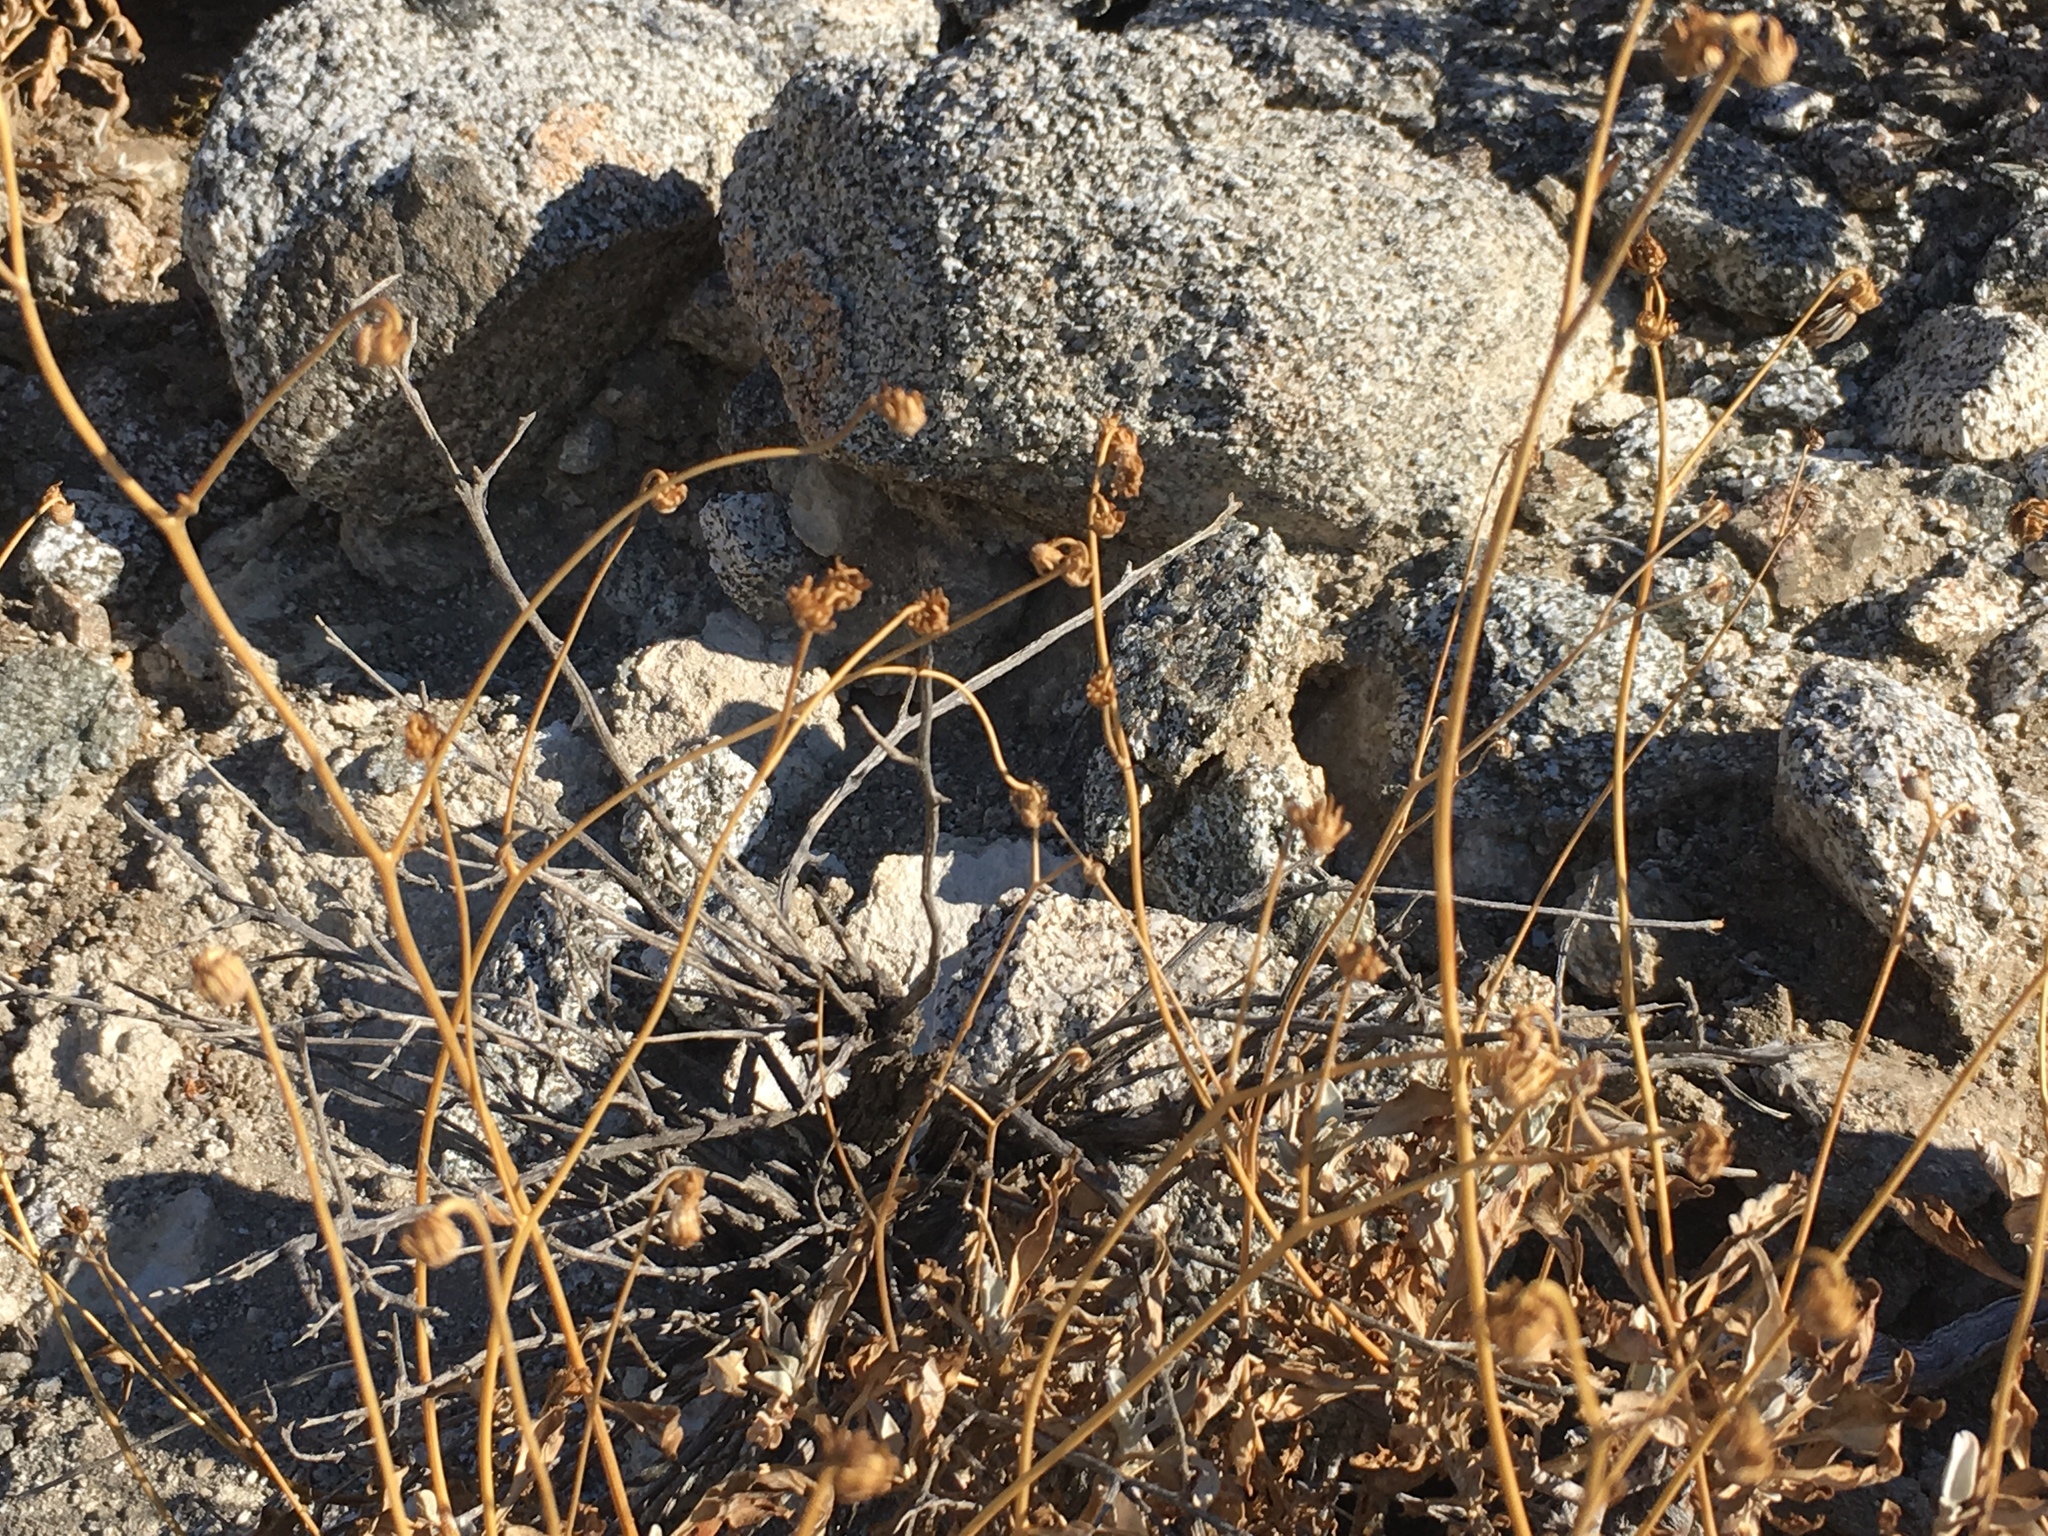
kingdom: Plantae
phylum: Tracheophyta
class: Magnoliopsida
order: Asterales
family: Asteraceae
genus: Encelia
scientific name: Encelia farinosa
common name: Brittlebush
